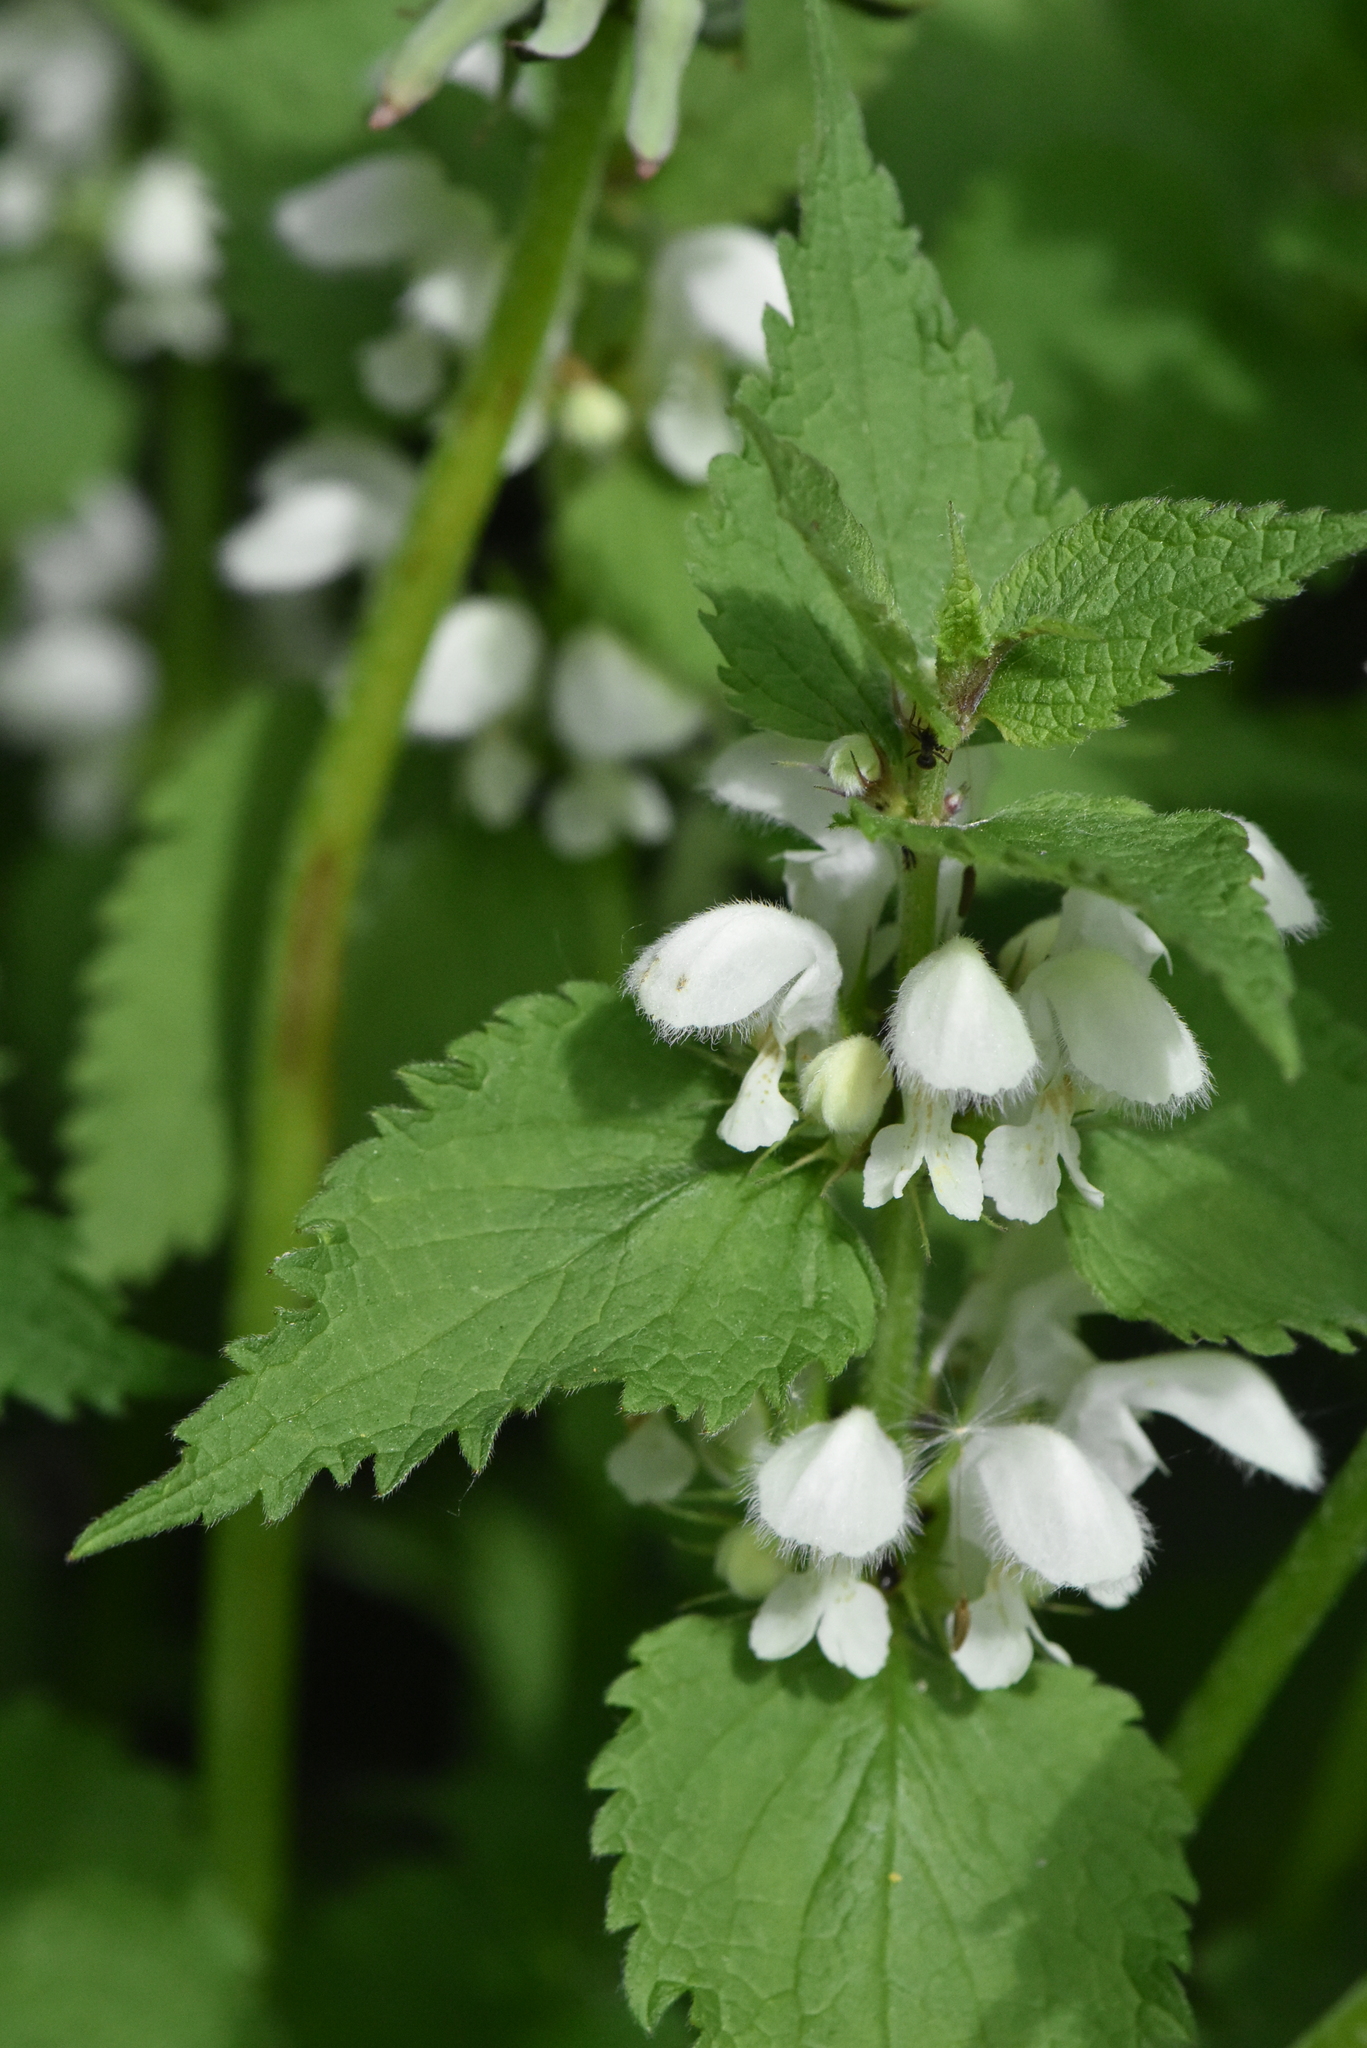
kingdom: Plantae
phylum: Tracheophyta
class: Magnoliopsida
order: Lamiales
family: Lamiaceae
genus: Lamium
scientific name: Lamium album
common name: White dead-nettle
